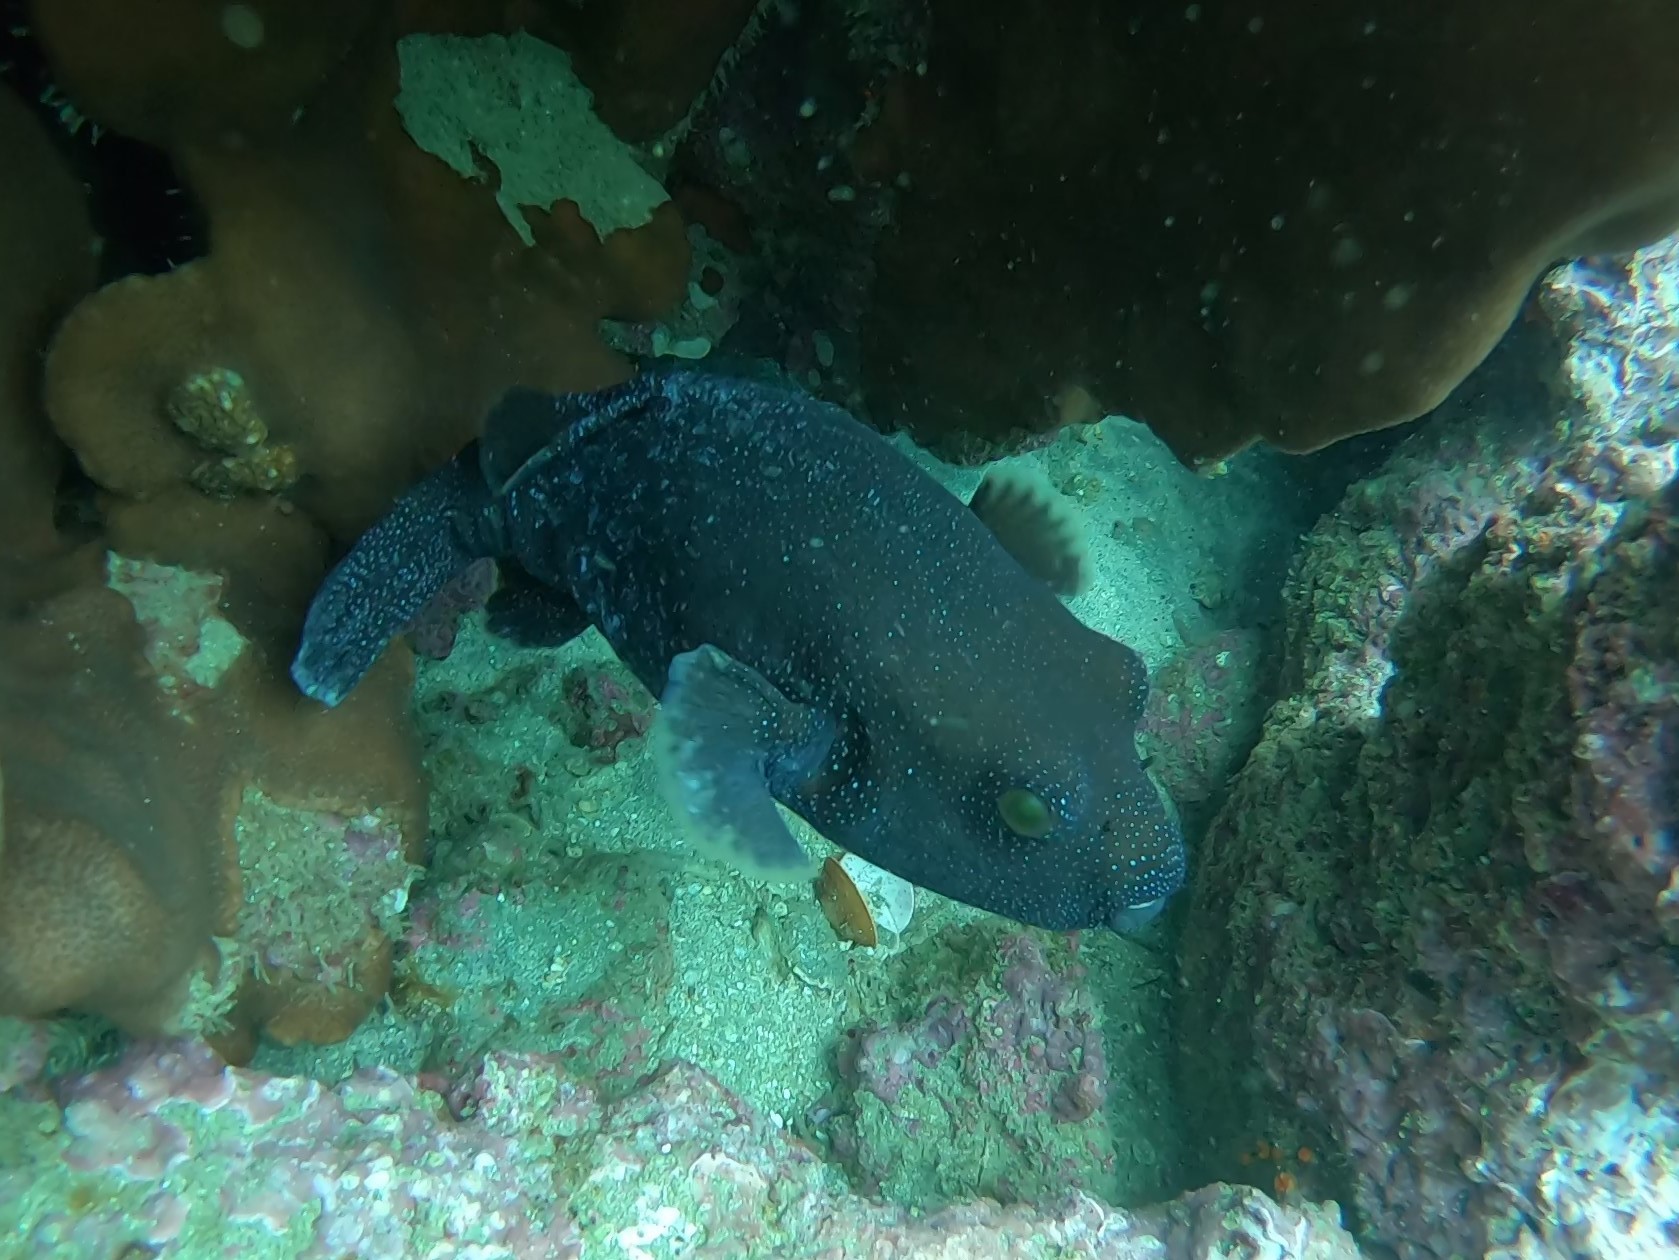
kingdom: Animalia
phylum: Chordata
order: Tetraodontiformes
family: Tetraodontidae
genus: Arothron
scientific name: Arothron meleagris
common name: Guinea-fowl pufferfish
